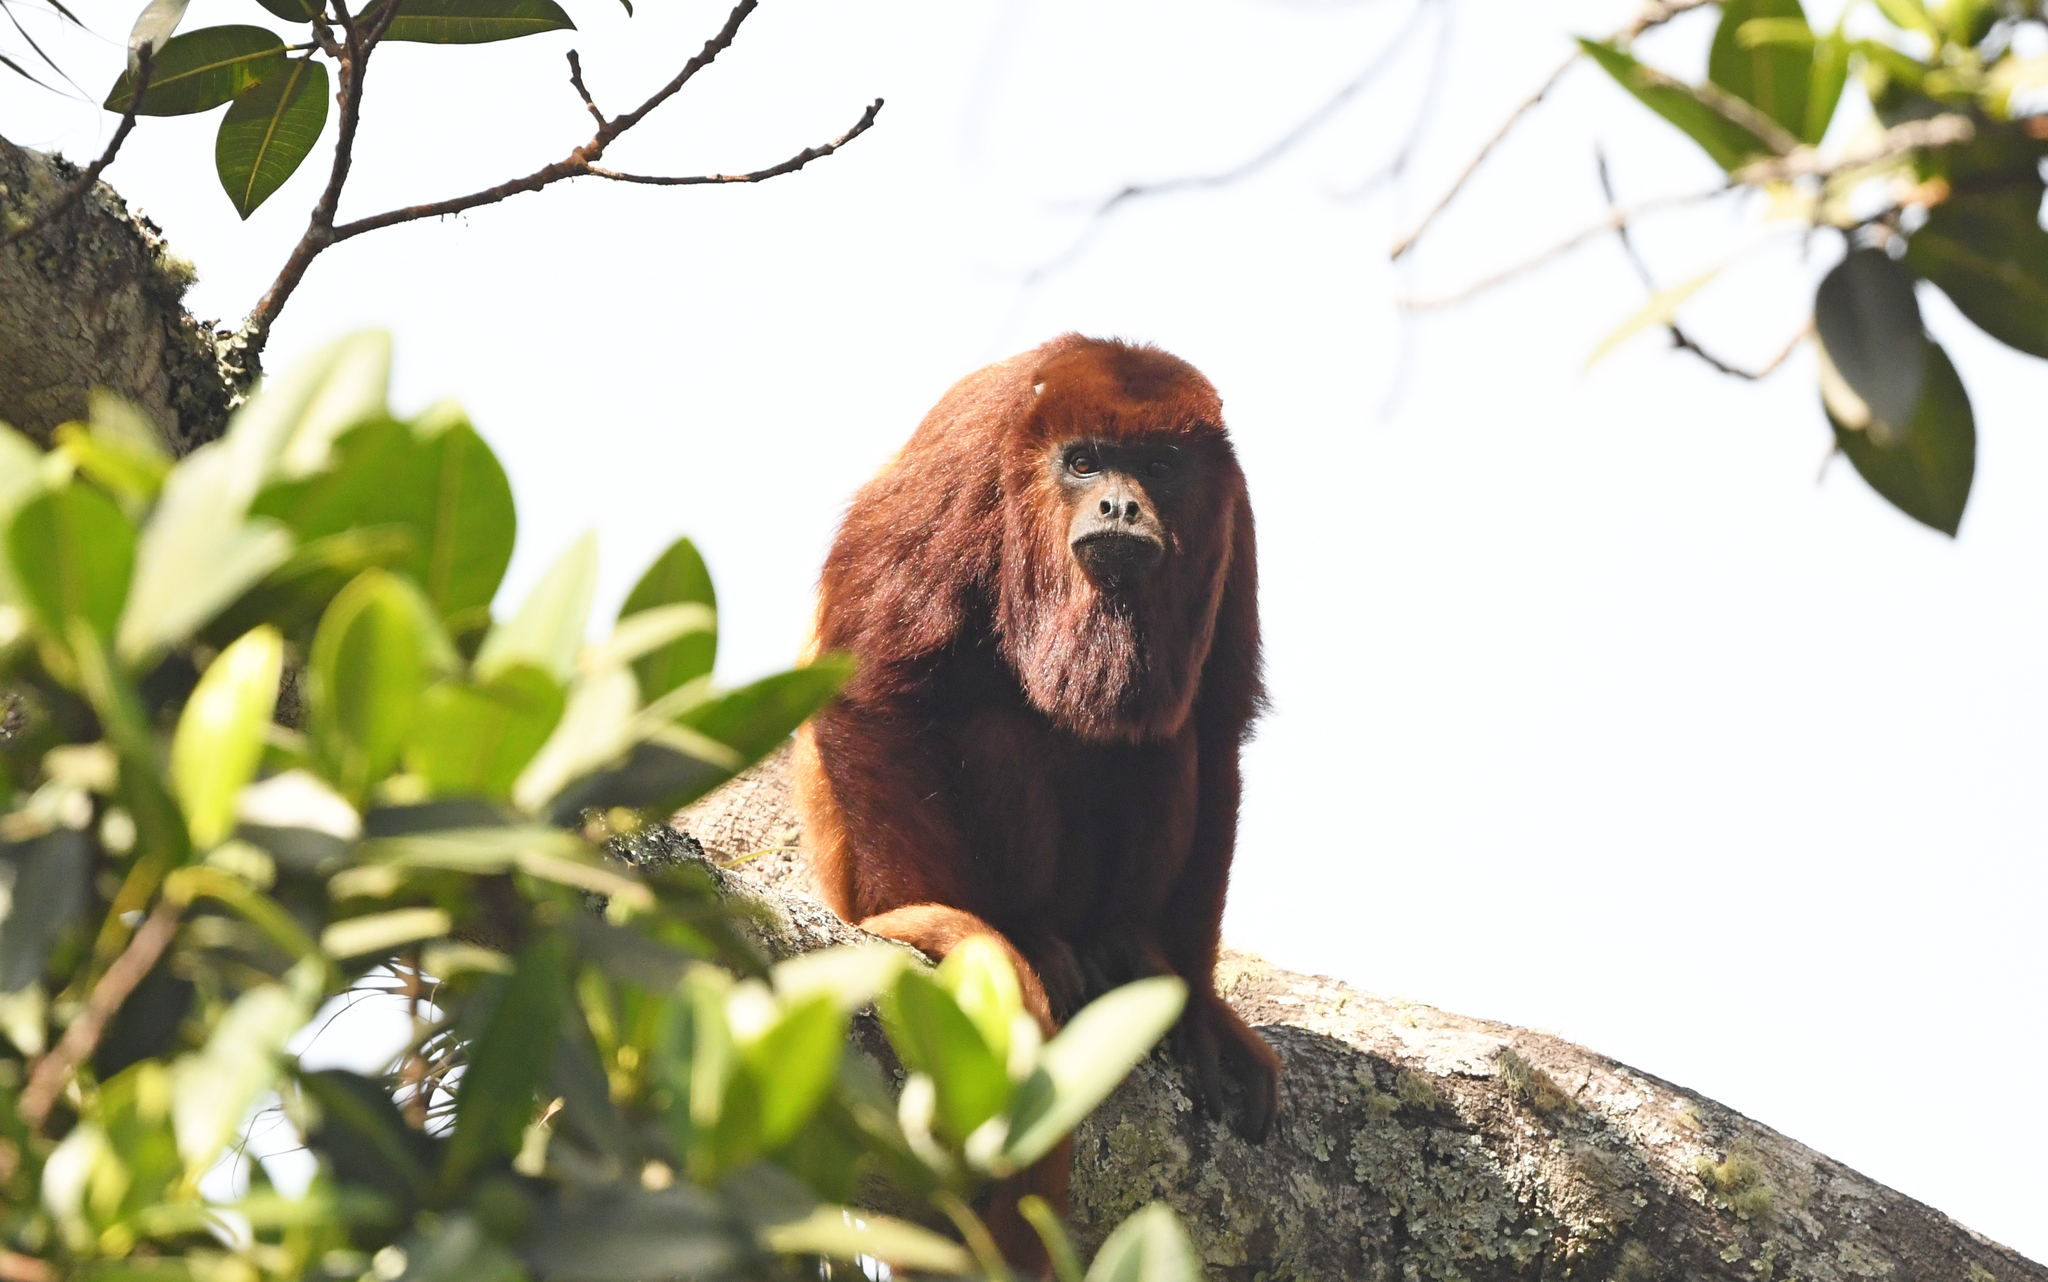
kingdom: Animalia
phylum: Chordata
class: Mammalia
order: Primates
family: Atelidae
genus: Alouatta
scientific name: Alouatta seniculus
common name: Venezuelan red howler
